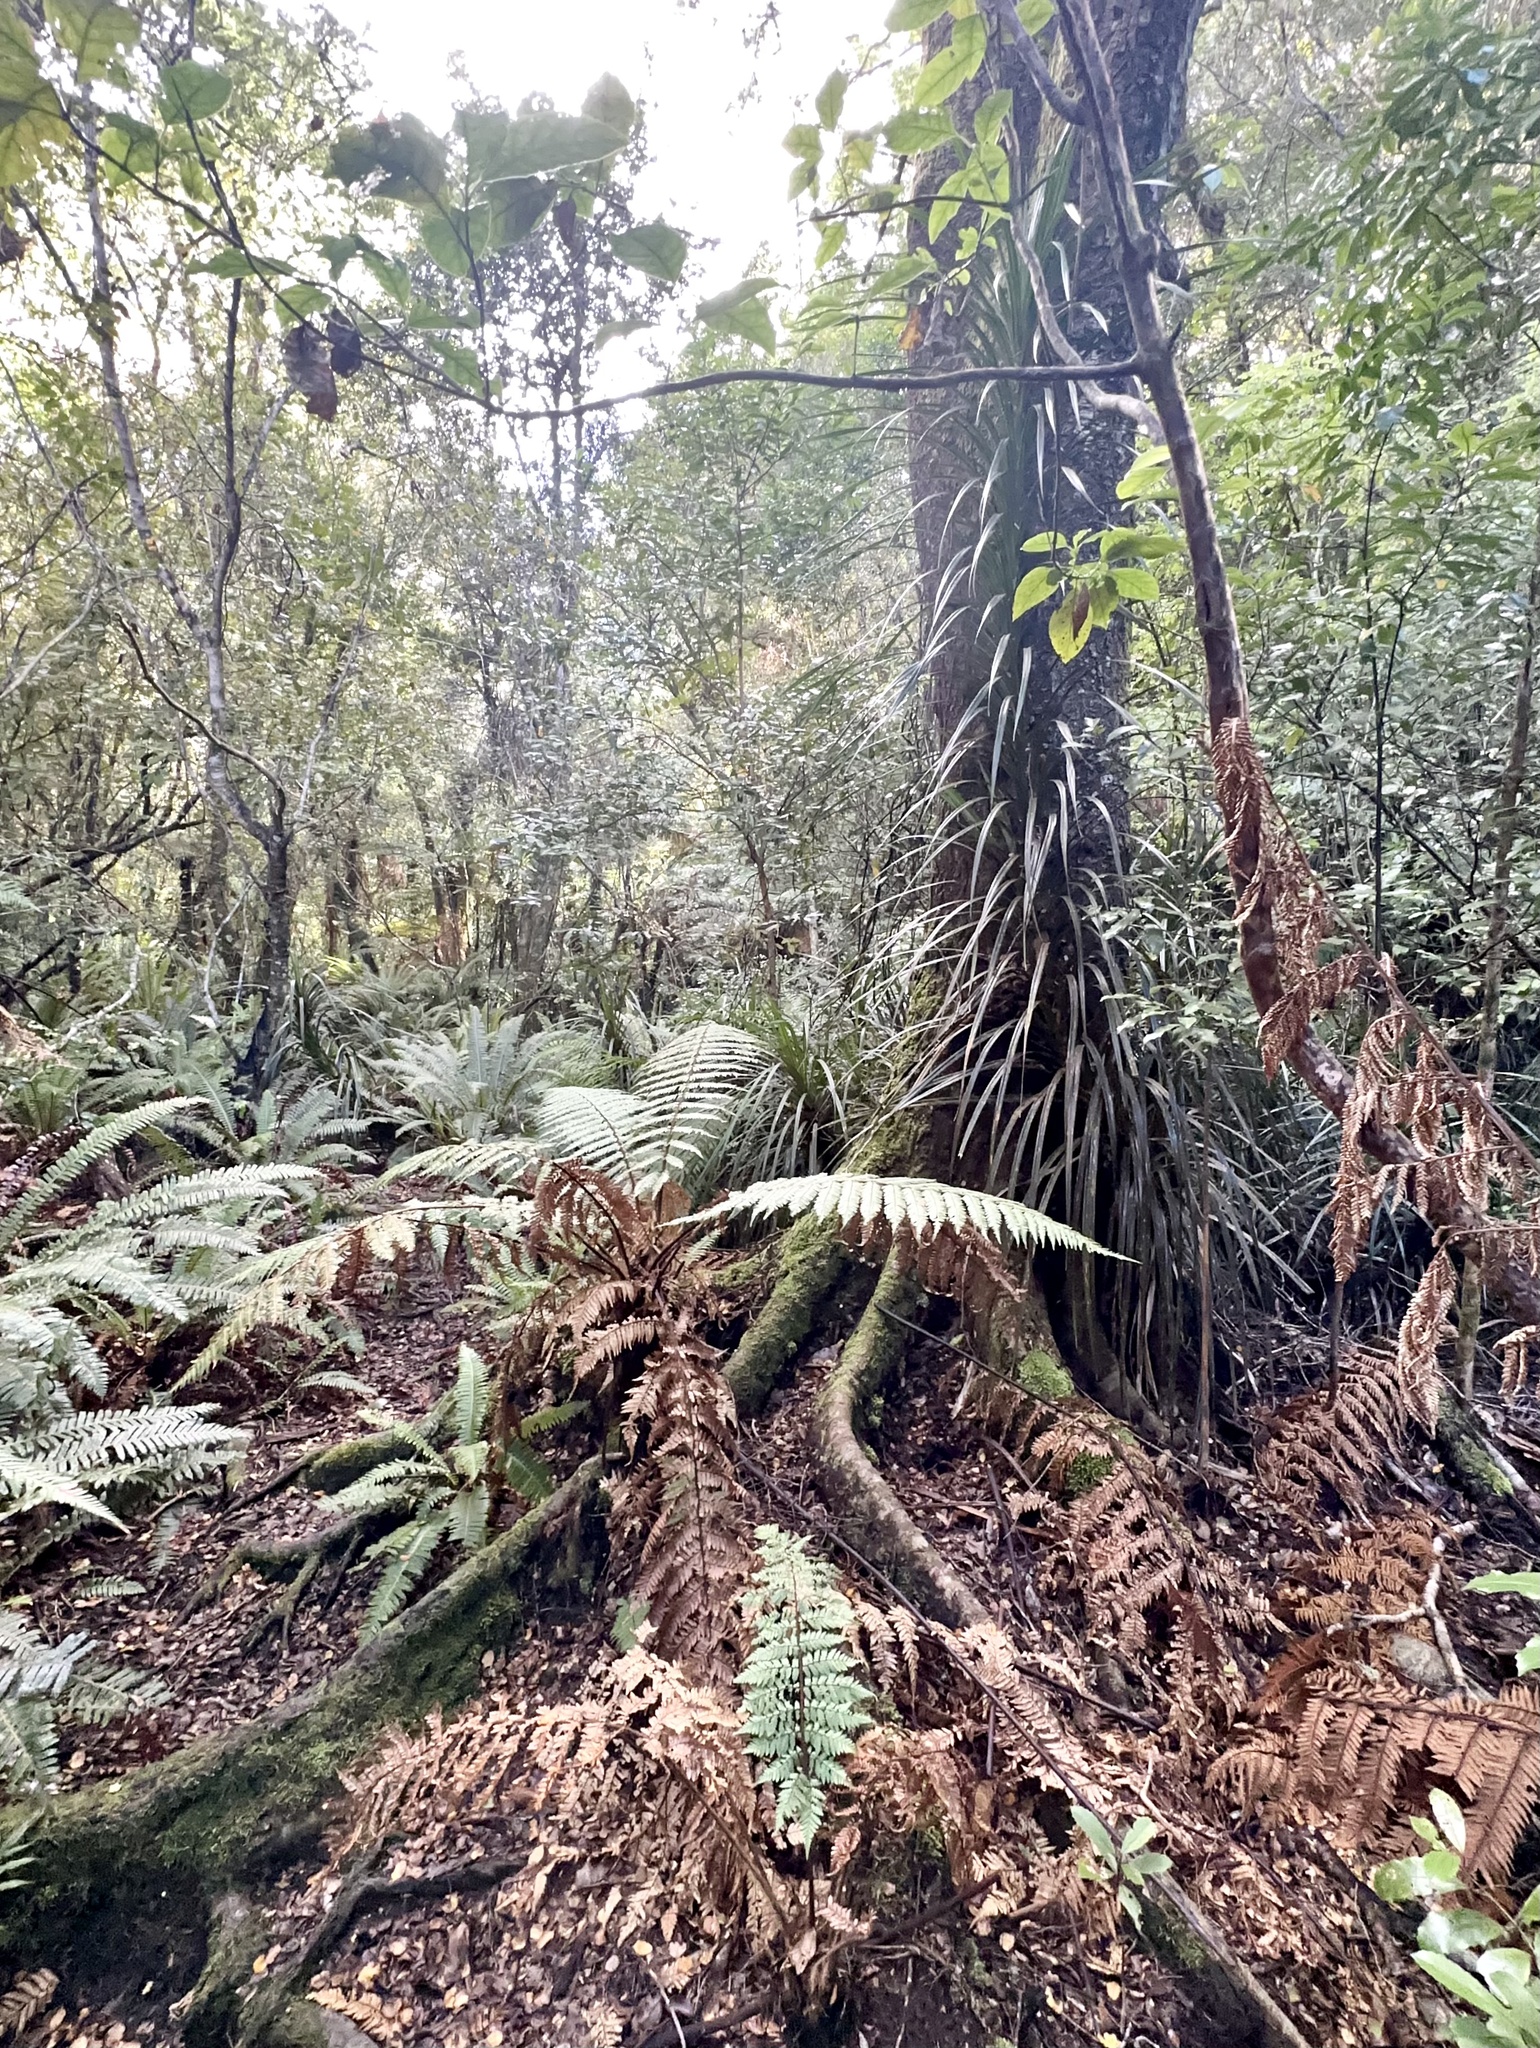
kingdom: Plantae
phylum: Tracheophyta
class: Magnoliopsida
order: Laurales
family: Atherospermataceae
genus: Laurelia
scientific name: Laurelia novae-zelandiae
